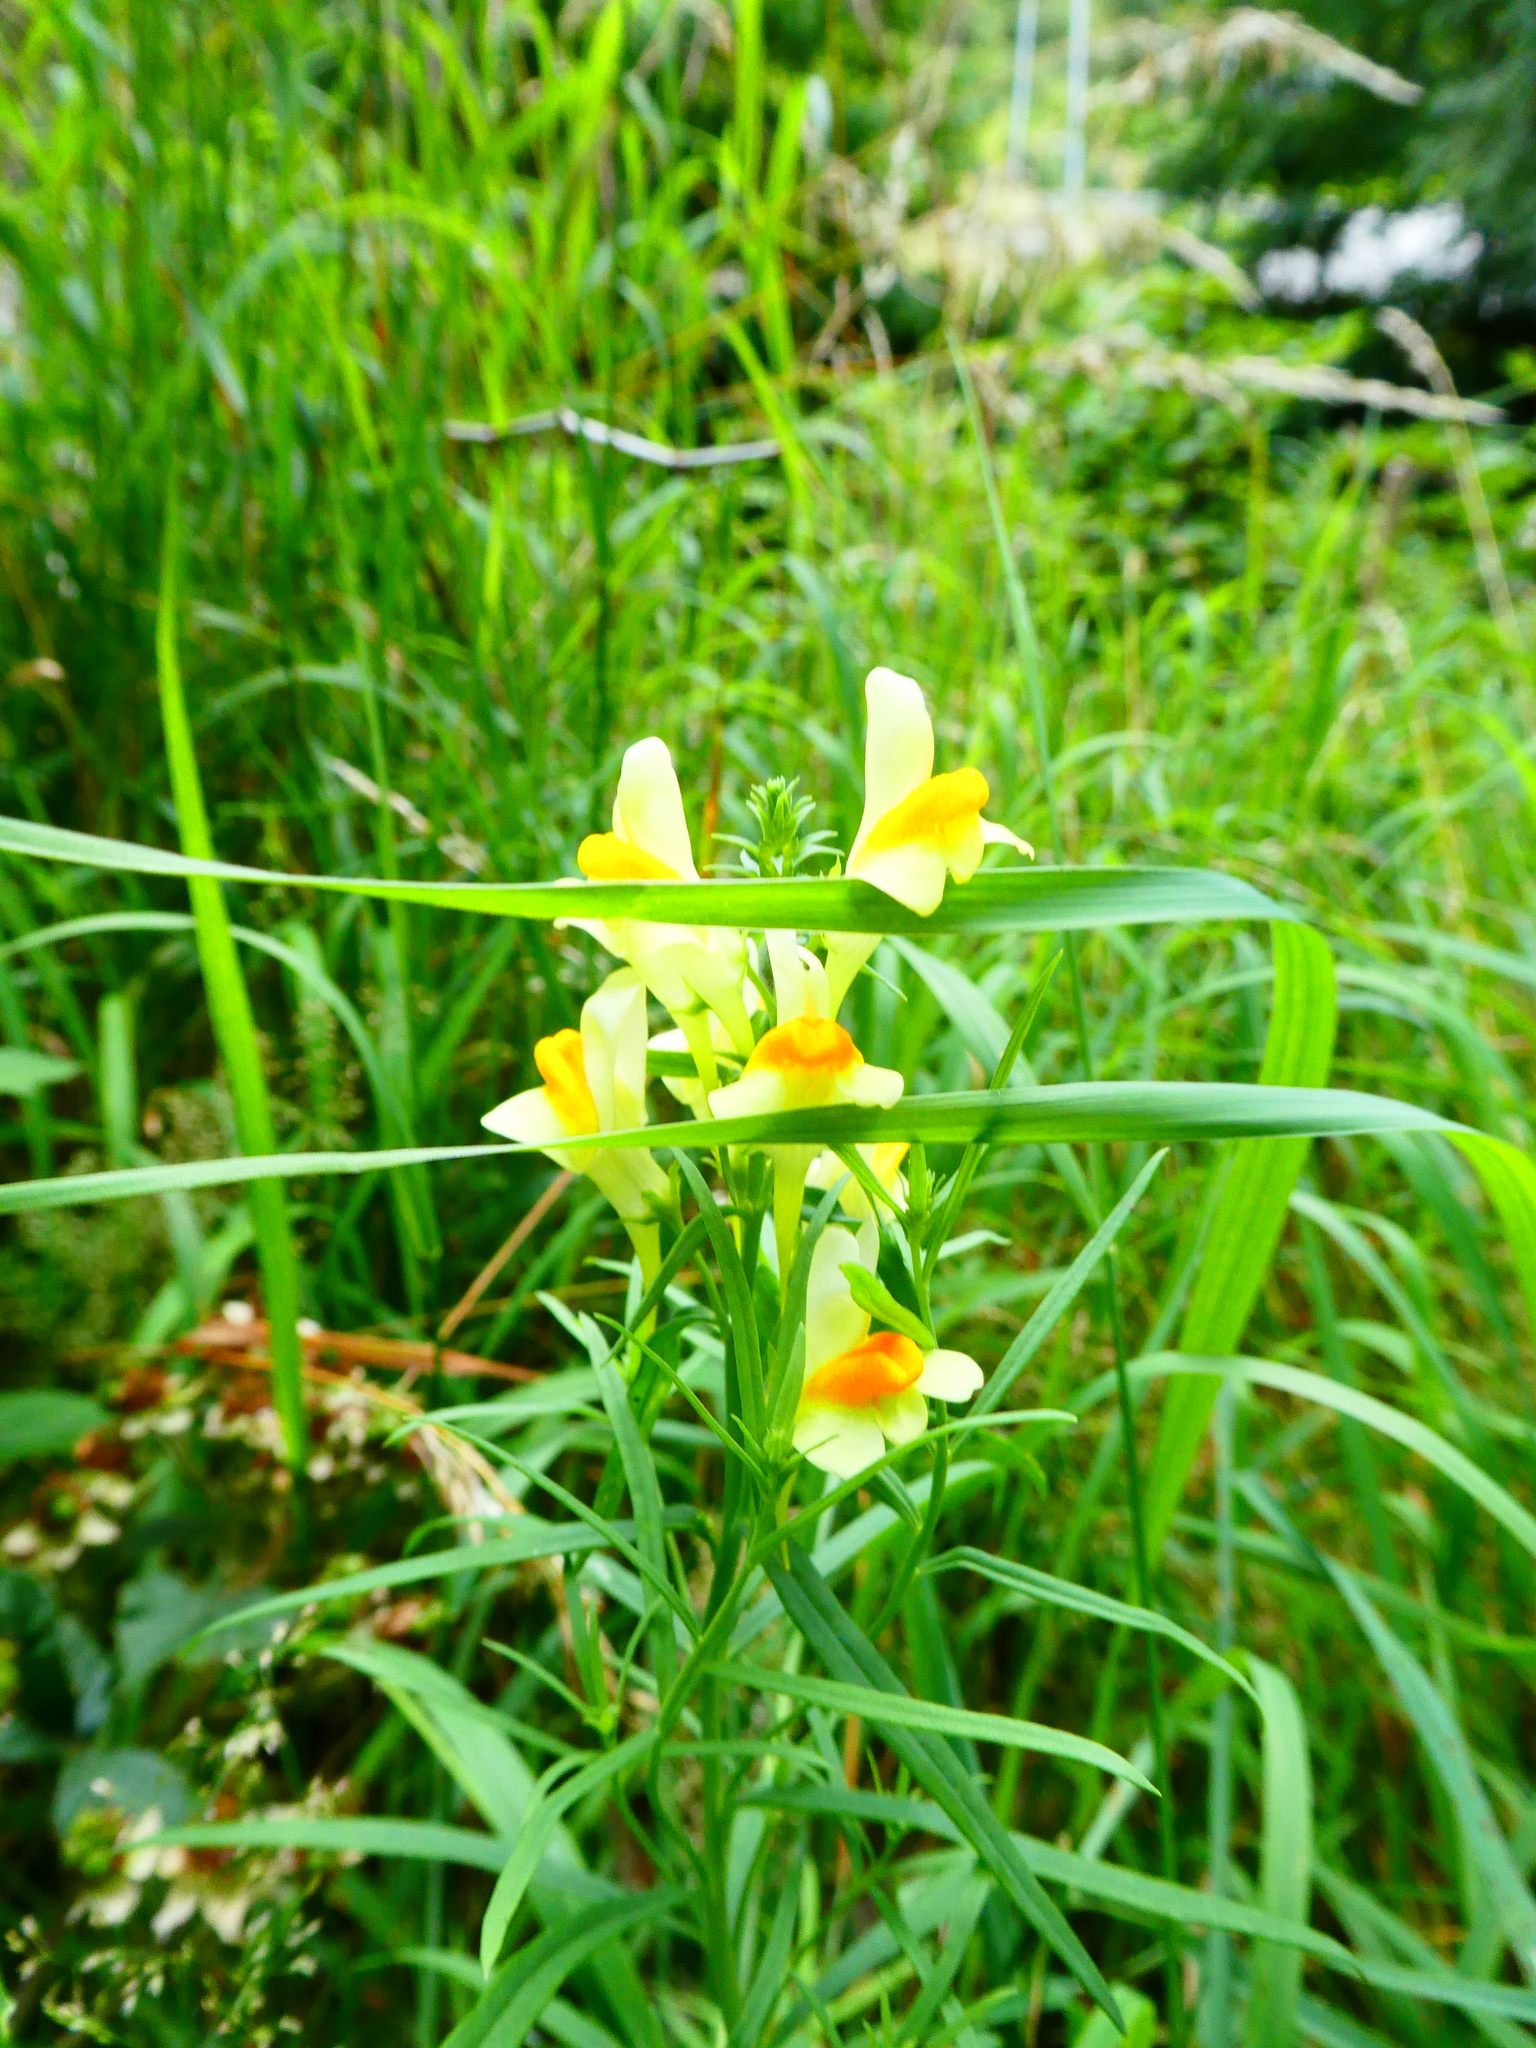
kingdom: Plantae
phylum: Tracheophyta
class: Magnoliopsida
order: Lamiales
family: Plantaginaceae
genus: Linaria
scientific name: Linaria vulgaris
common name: Butter and eggs
